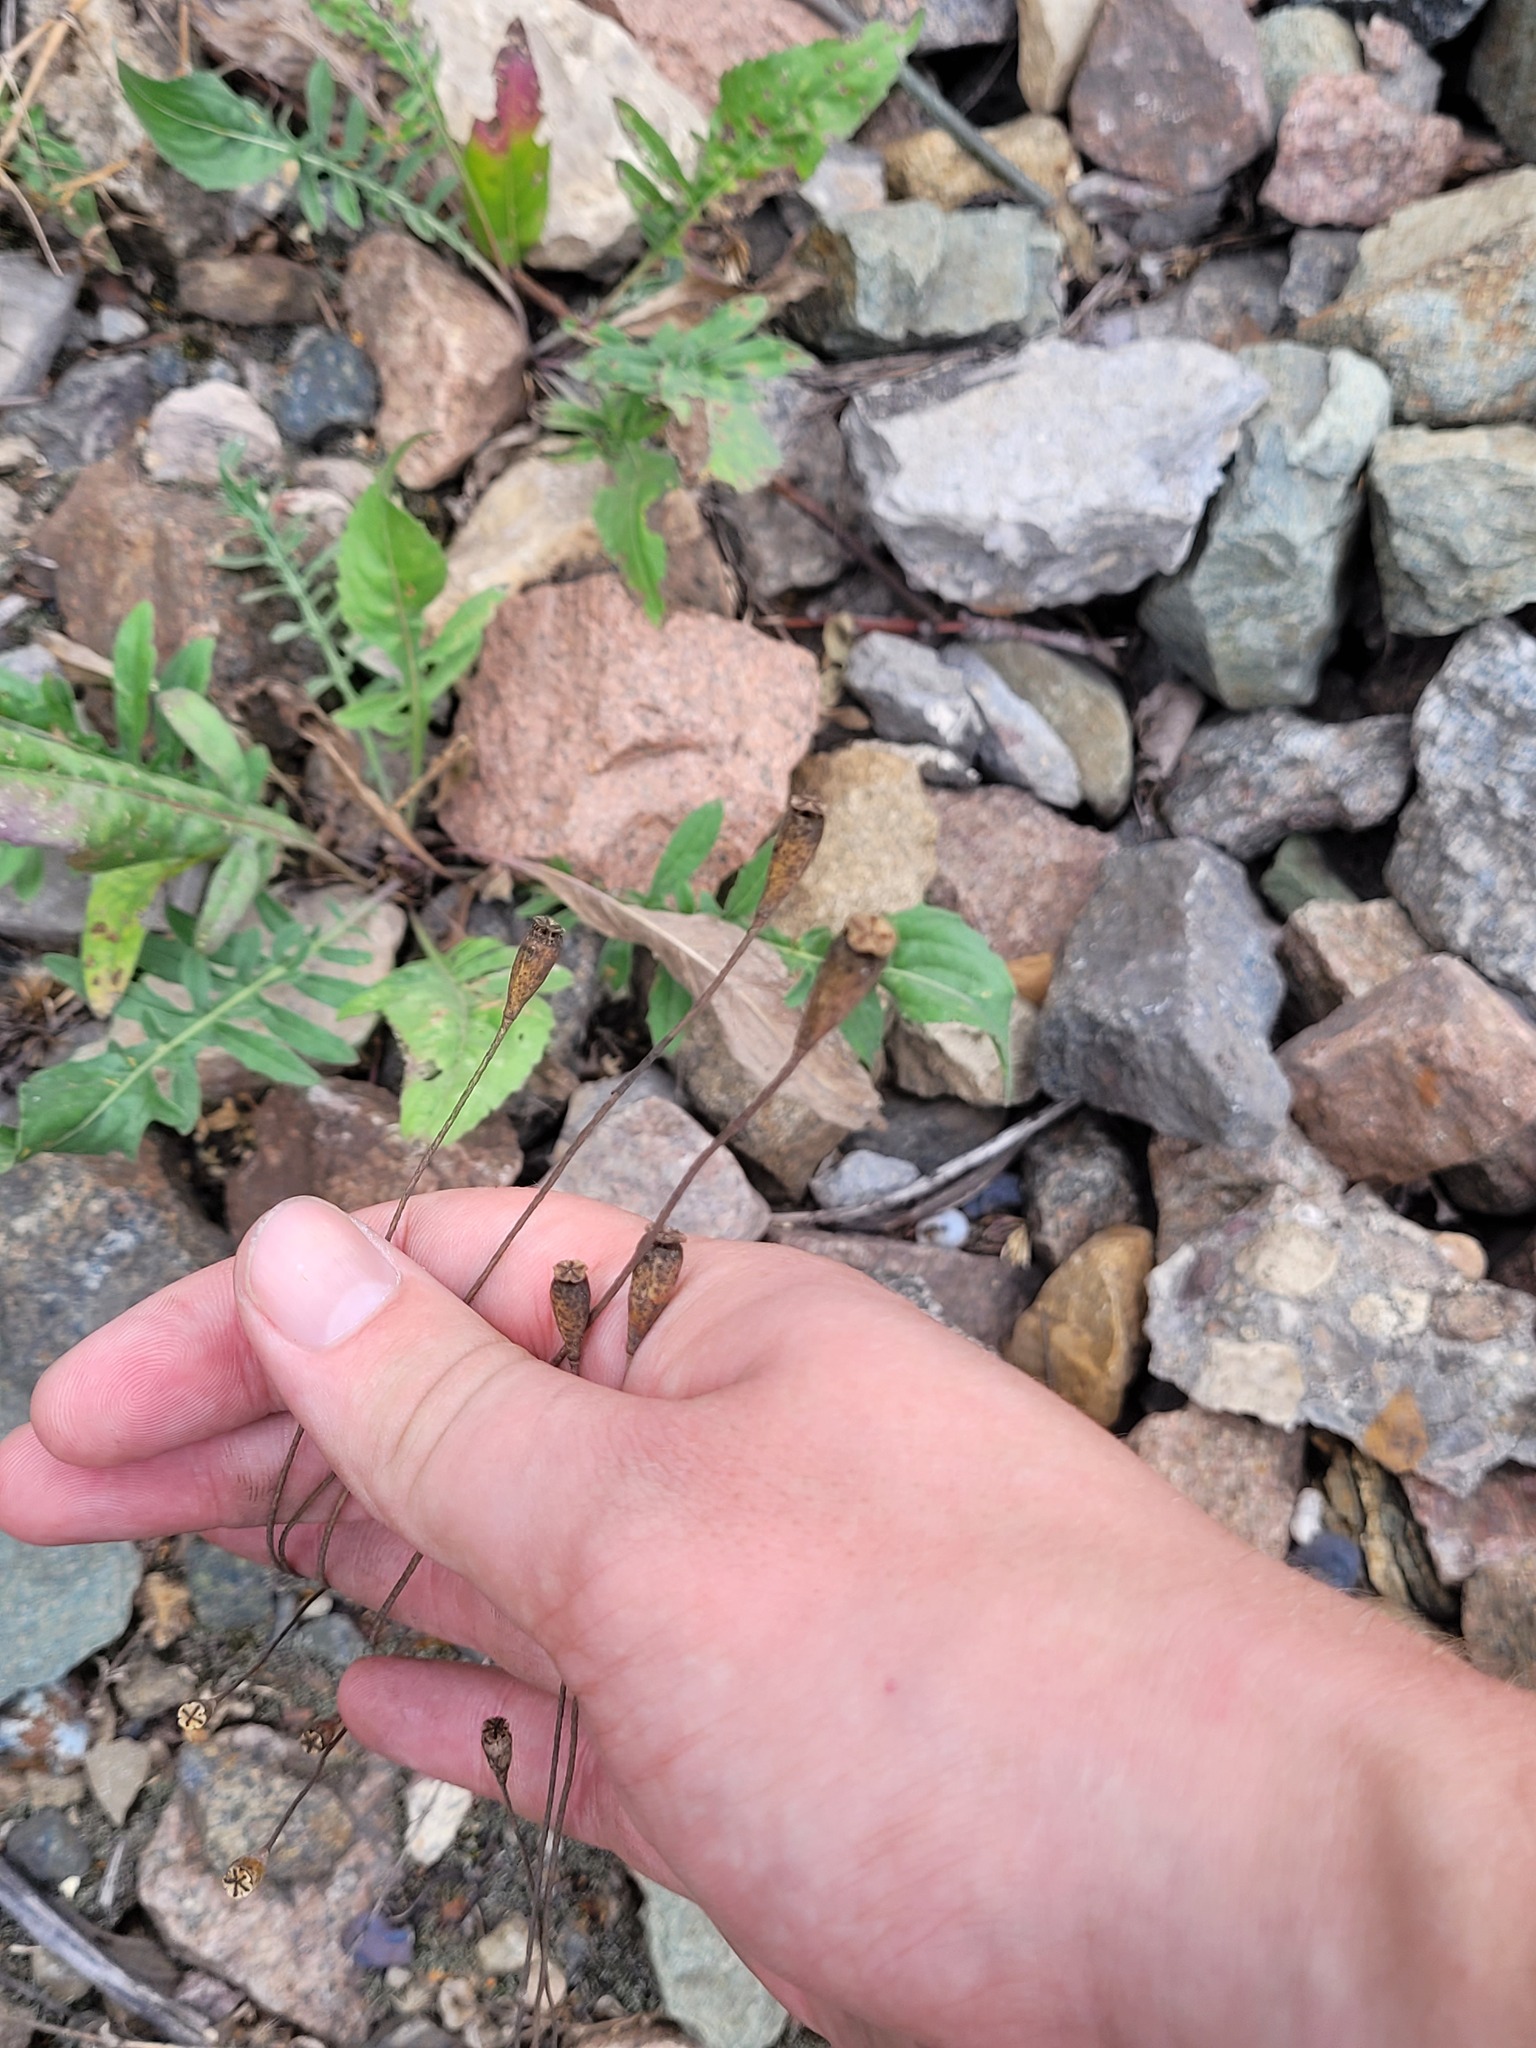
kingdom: Plantae
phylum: Tracheophyta
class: Magnoliopsida
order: Ranunculales
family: Papaveraceae
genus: Papaver
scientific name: Papaver dubium
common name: Long-headed poppy
